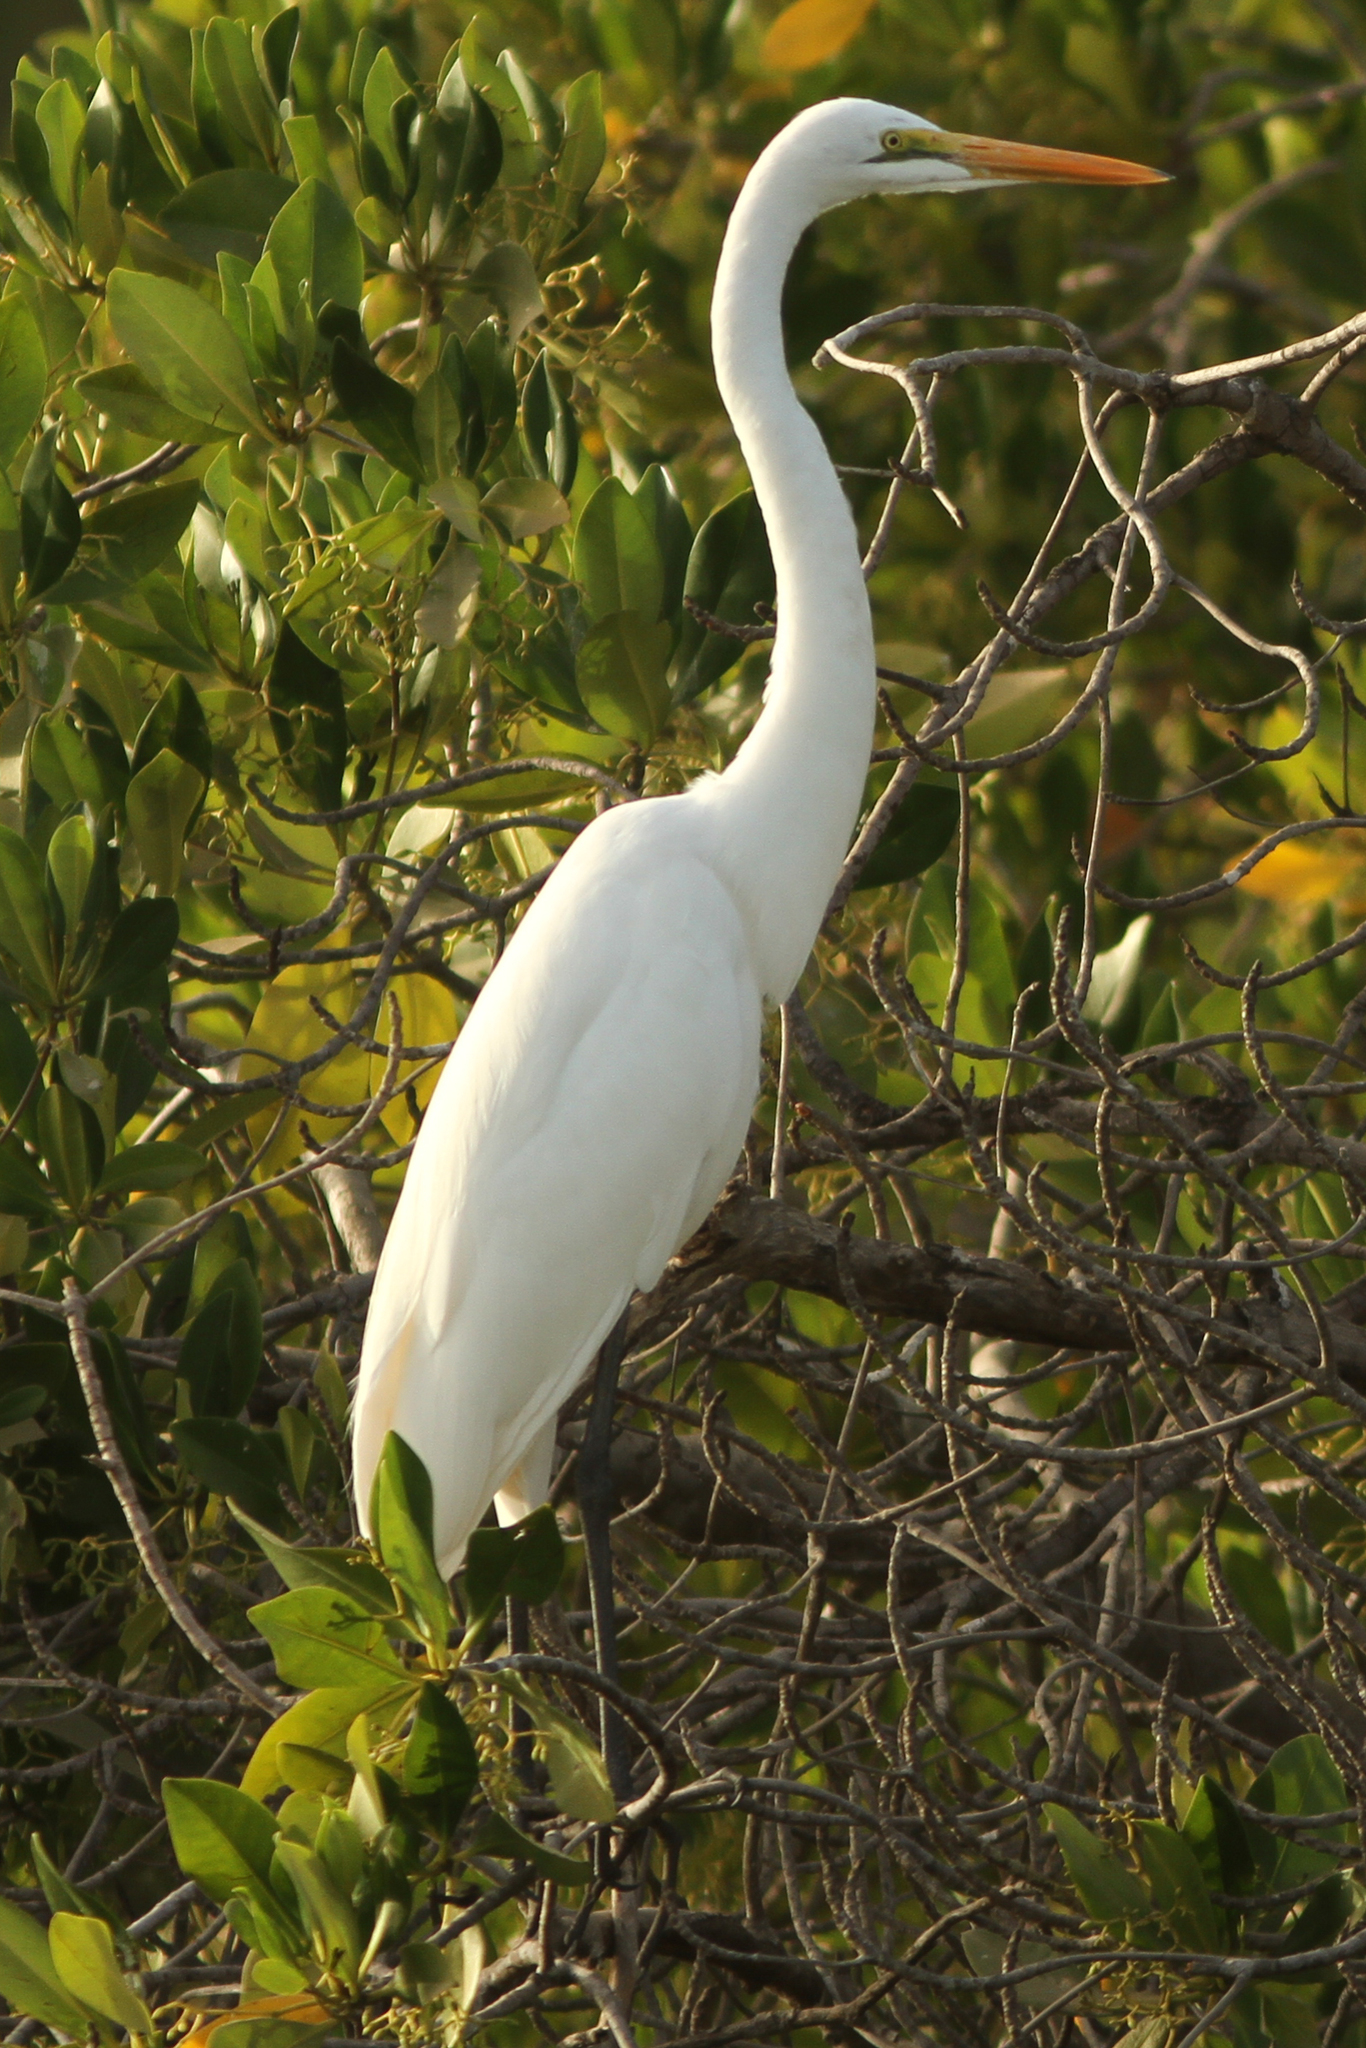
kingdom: Animalia
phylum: Chordata
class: Aves
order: Pelecaniformes
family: Ardeidae
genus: Ardea
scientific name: Ardea alba
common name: Great egret
